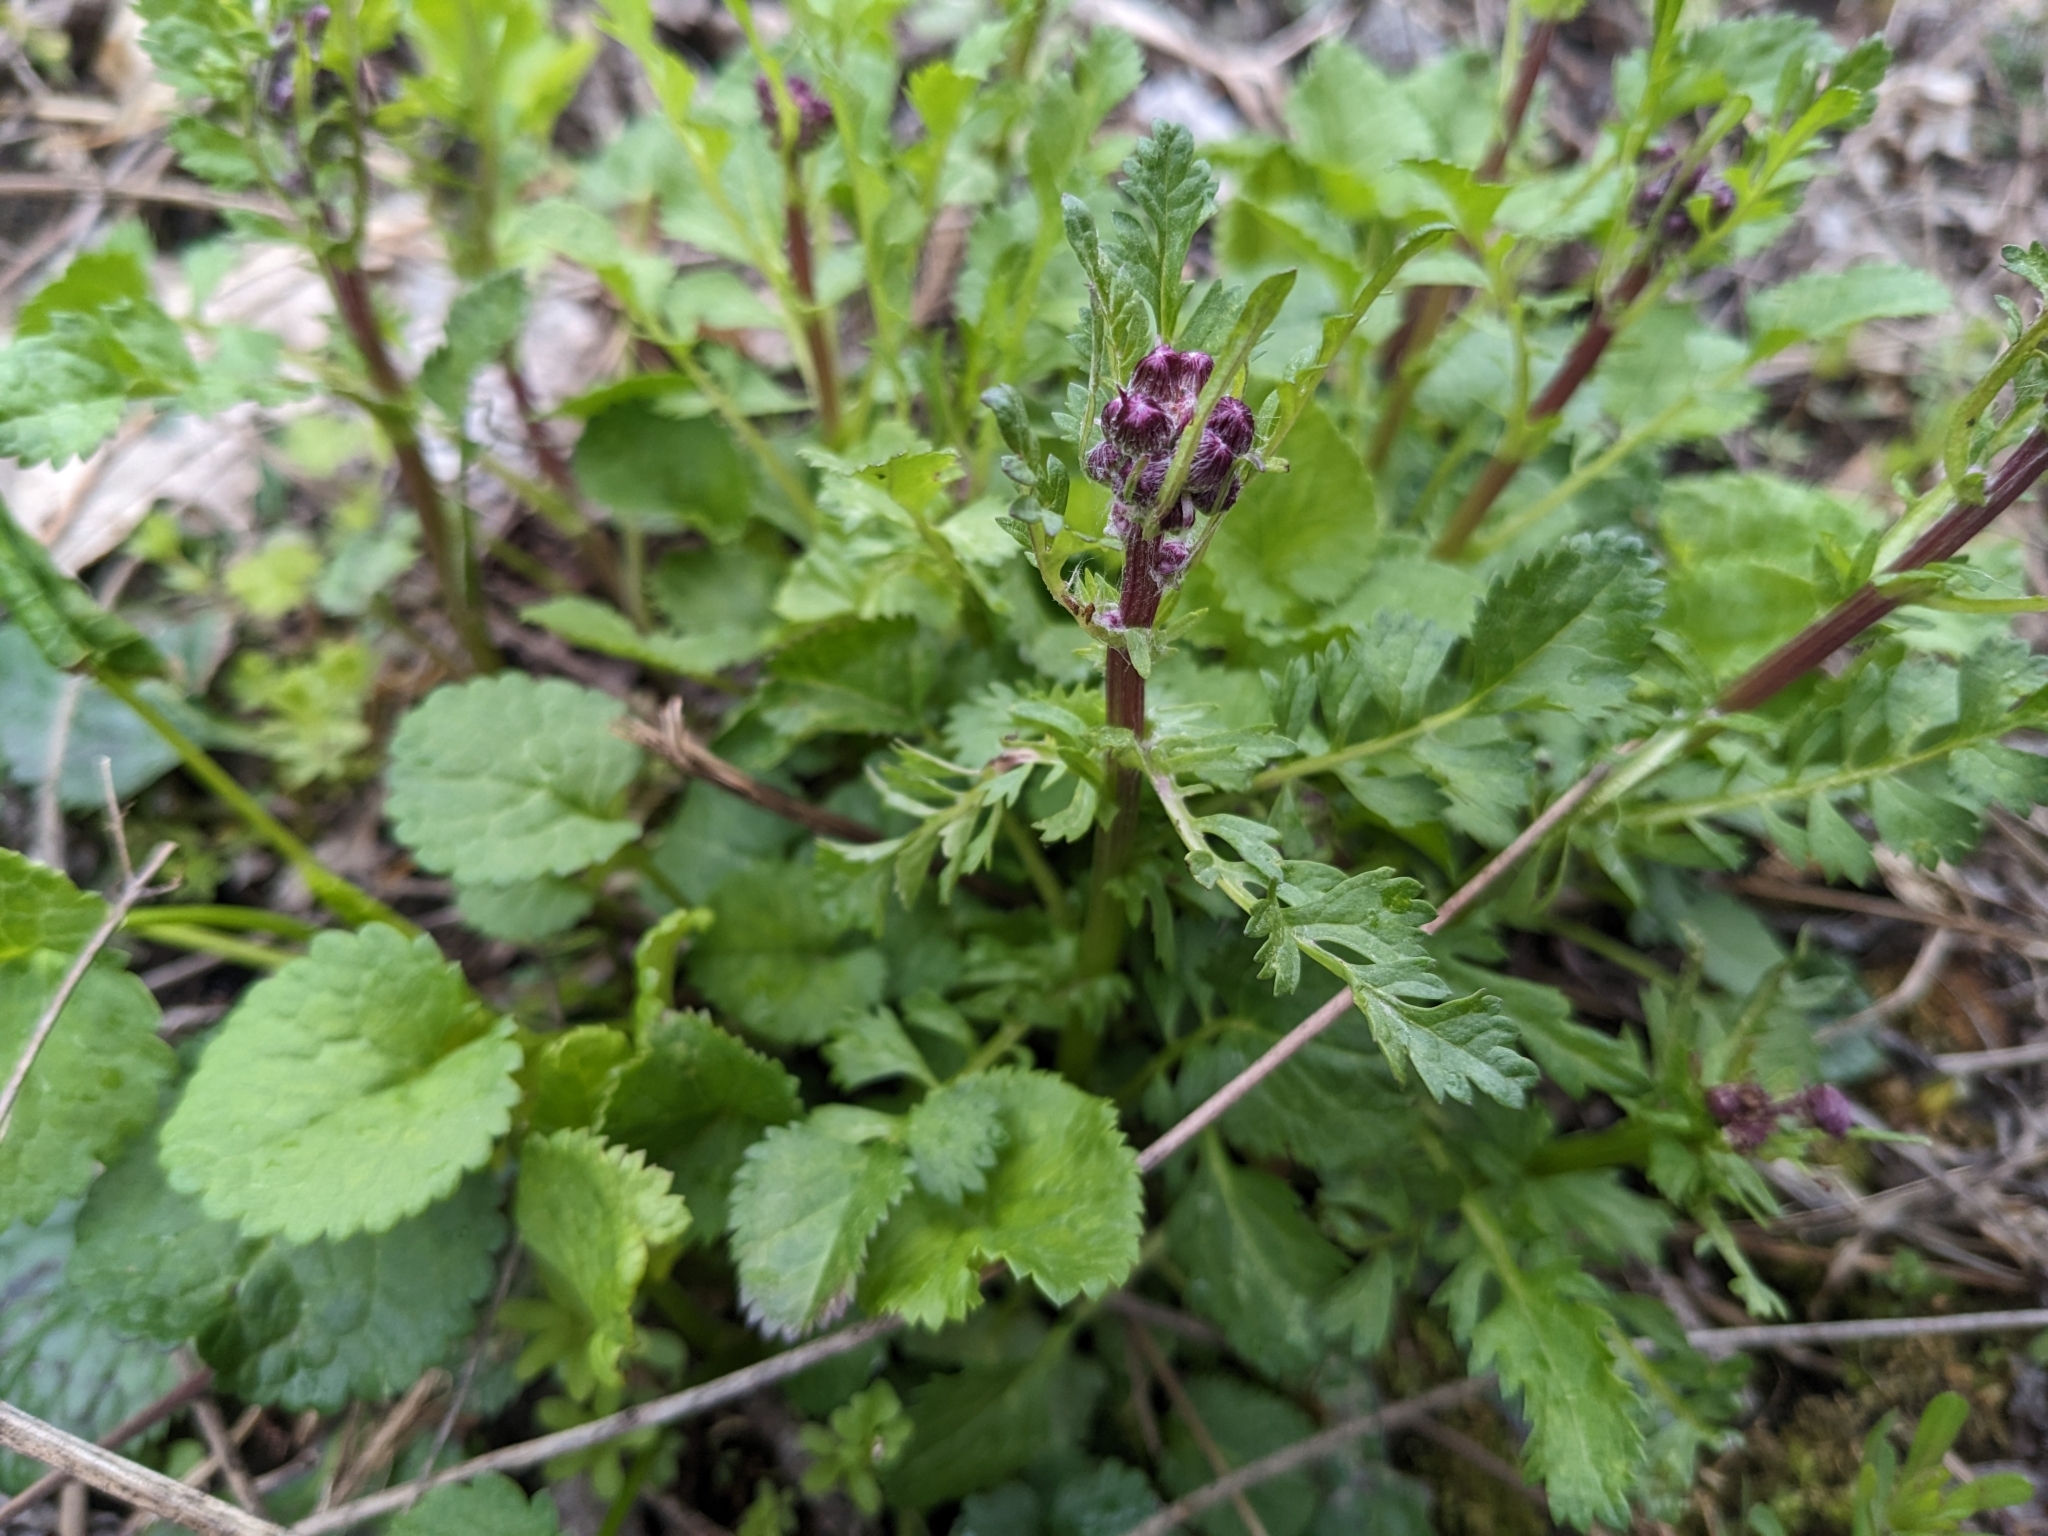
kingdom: Plantae
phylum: Tracheophyta
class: Magnoliopsida
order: Asterales
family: Asteraceae
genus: Packera
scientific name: Packera aurea
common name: Golden groundsel
